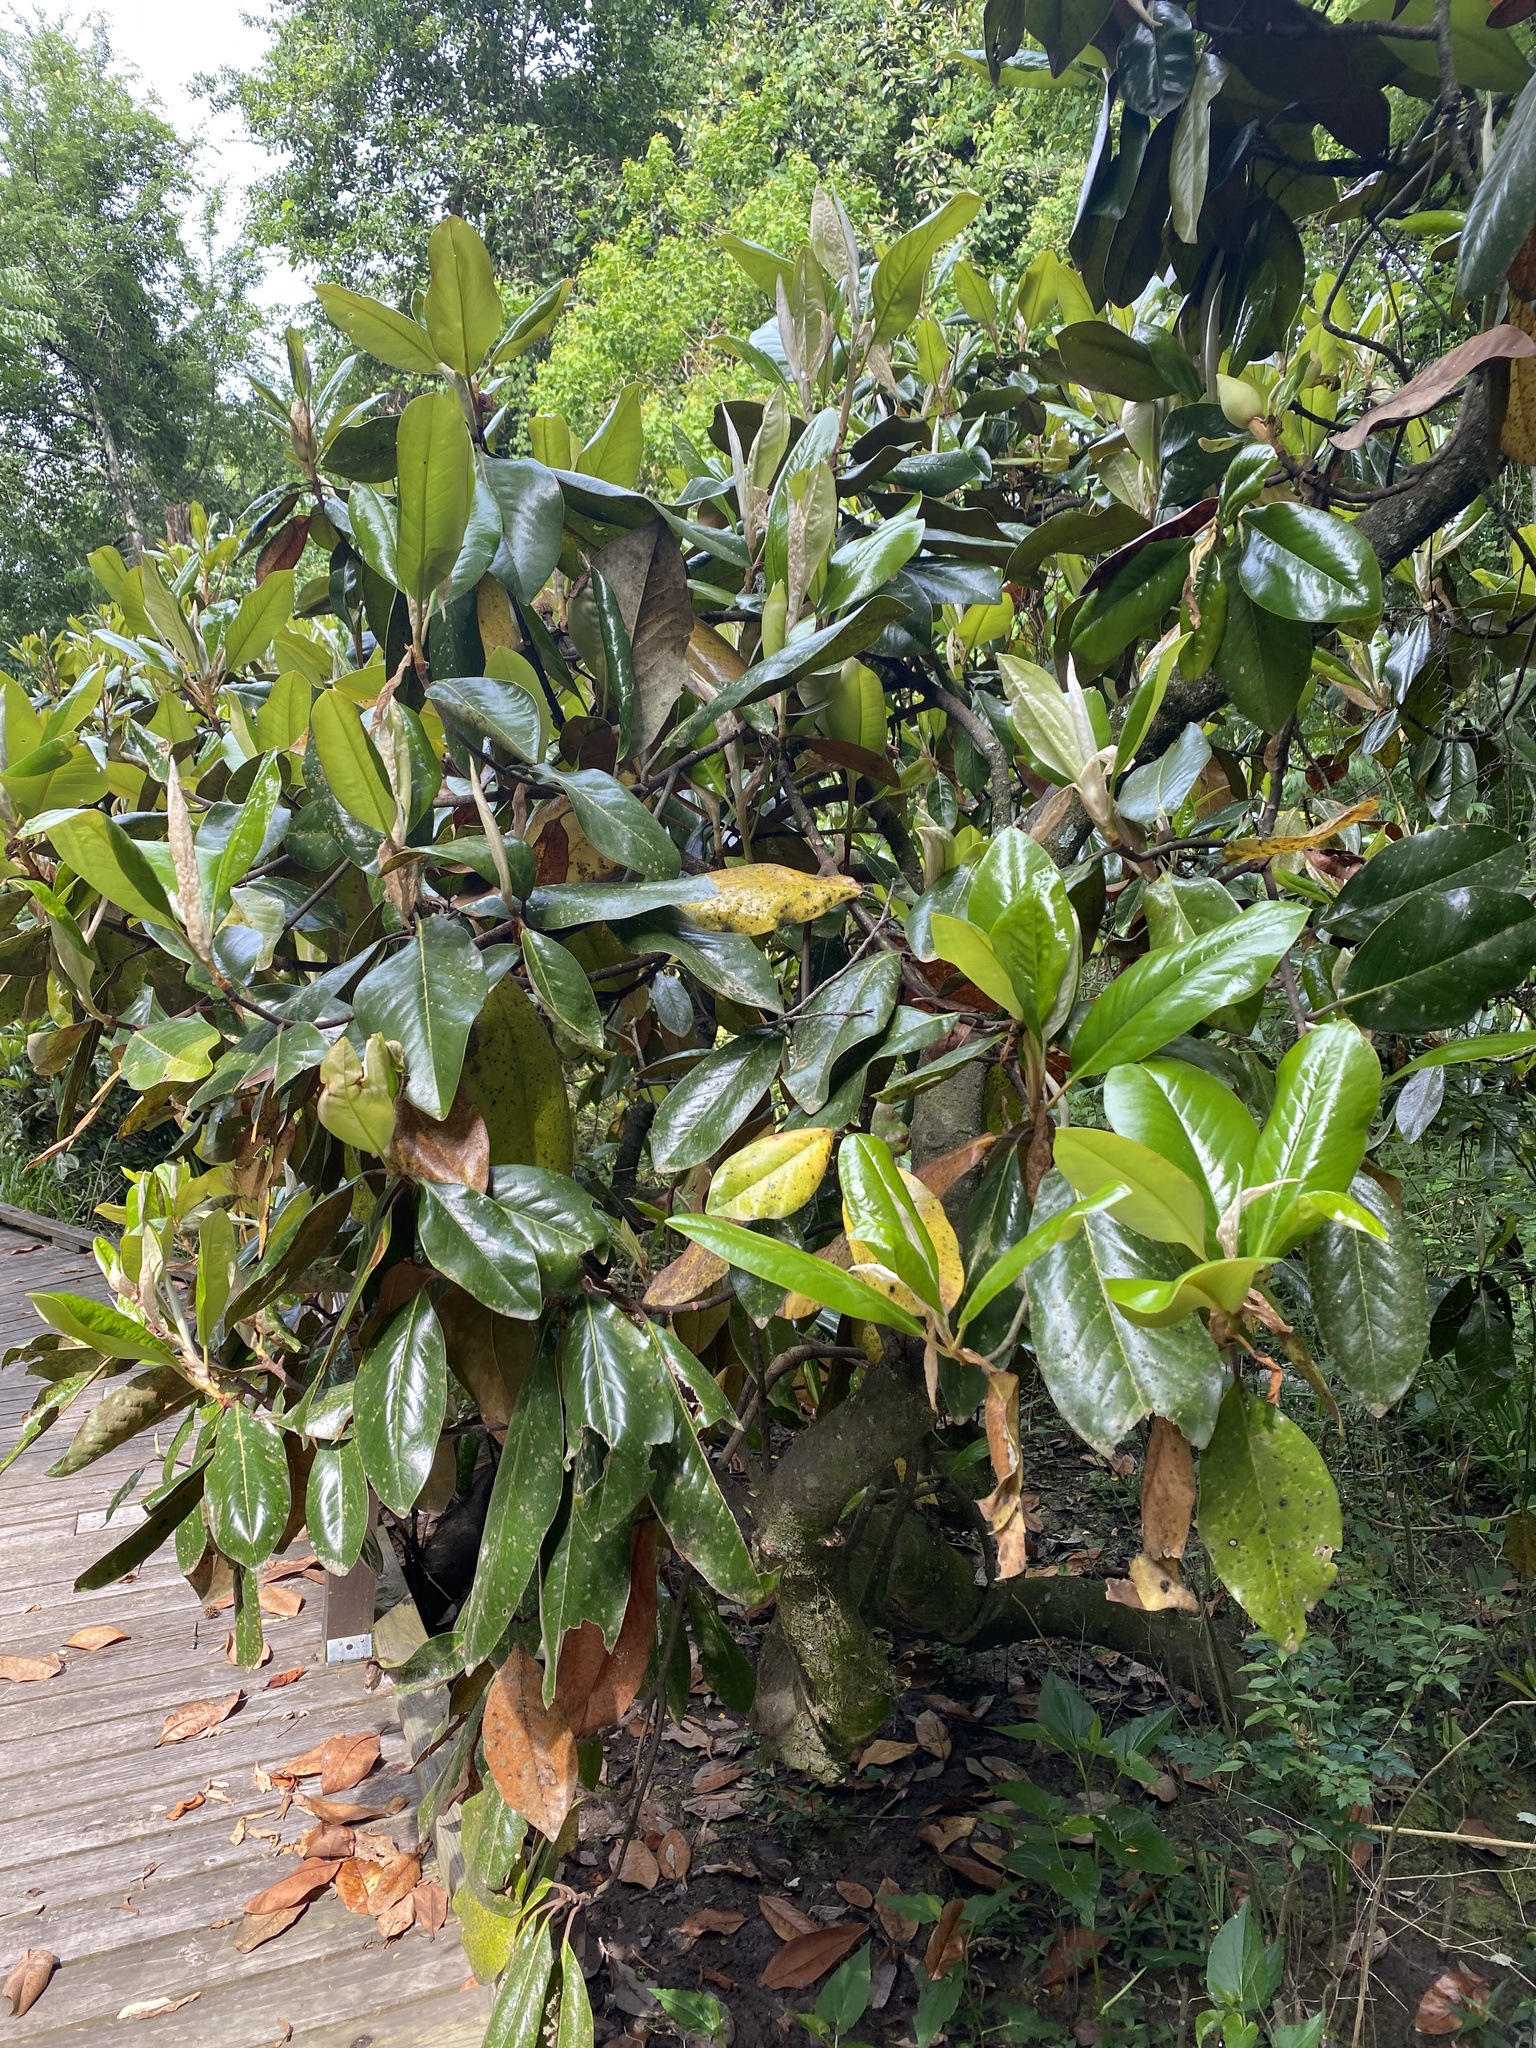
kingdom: Plantae
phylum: Tracheophyta
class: Magnoliopsida
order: Magnoliales
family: Magnoliaceae
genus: Magnolia
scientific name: Magnolia grandiflora
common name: Southern magnolia
